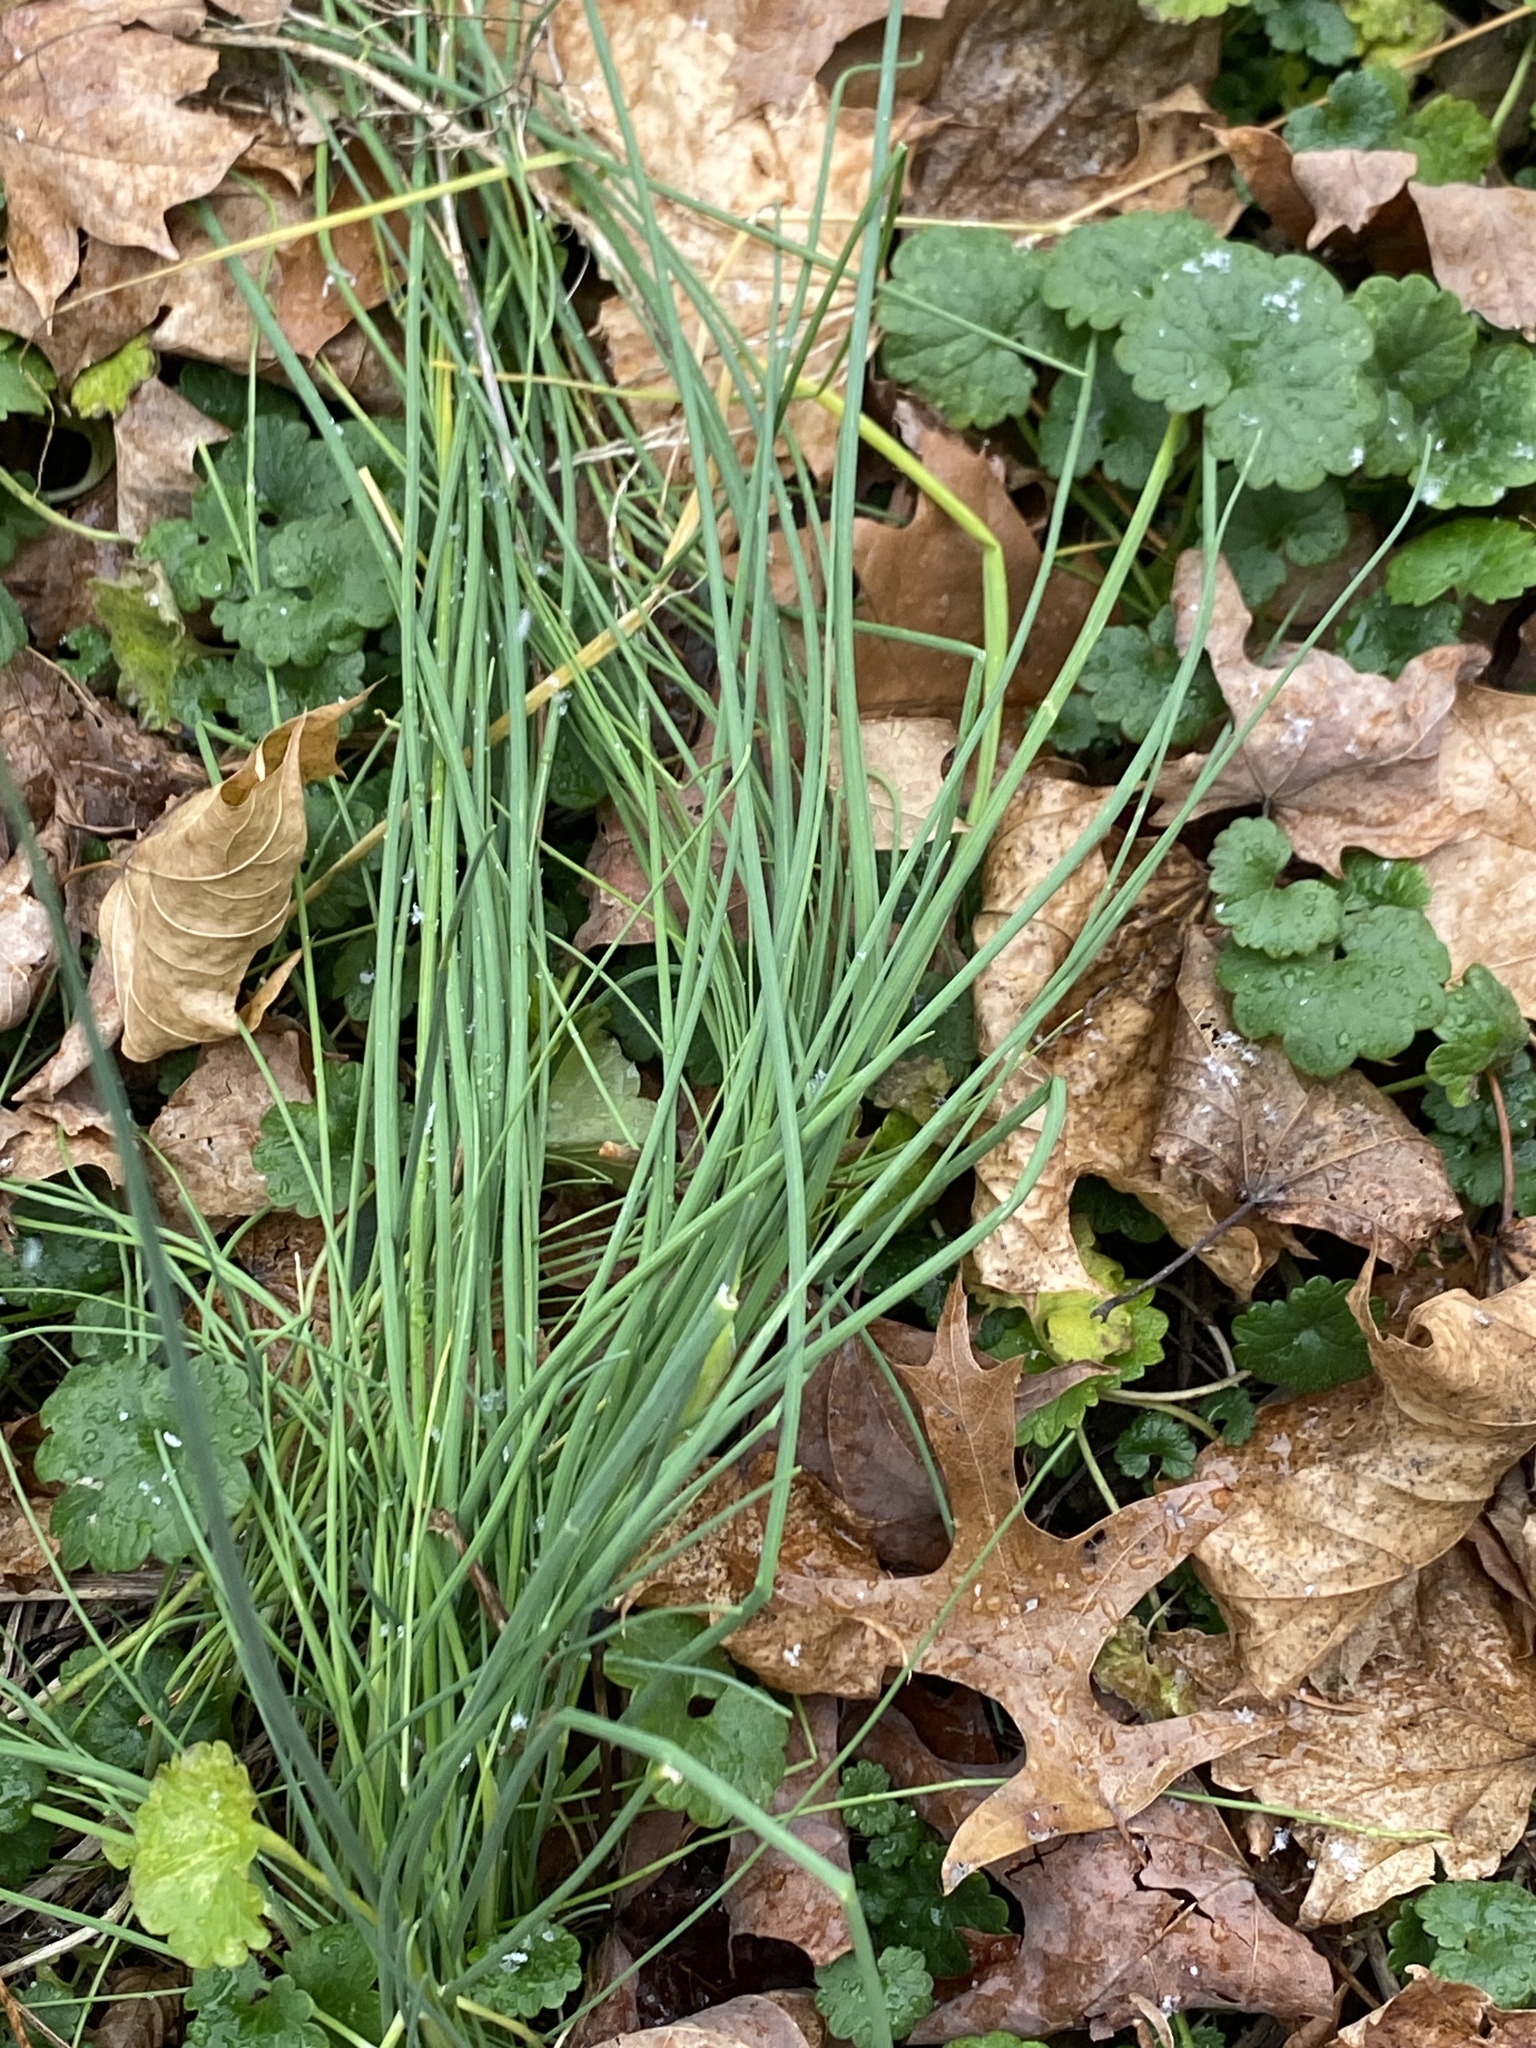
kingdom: Plantae
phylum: Tracheophyta
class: Liliopsida
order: Asparagales
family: Amaryllidaceae
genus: Allium
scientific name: Allium vineale
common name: Crow garlic
